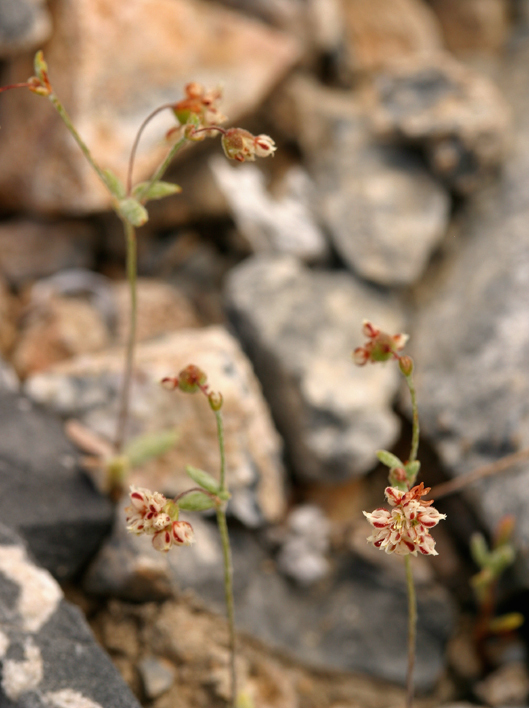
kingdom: Plantae
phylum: Tracheophyta
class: Magnoliopsida
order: Caryophyllales
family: Polygonaceae
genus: Eriogonum
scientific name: Eriogonum maculatum
